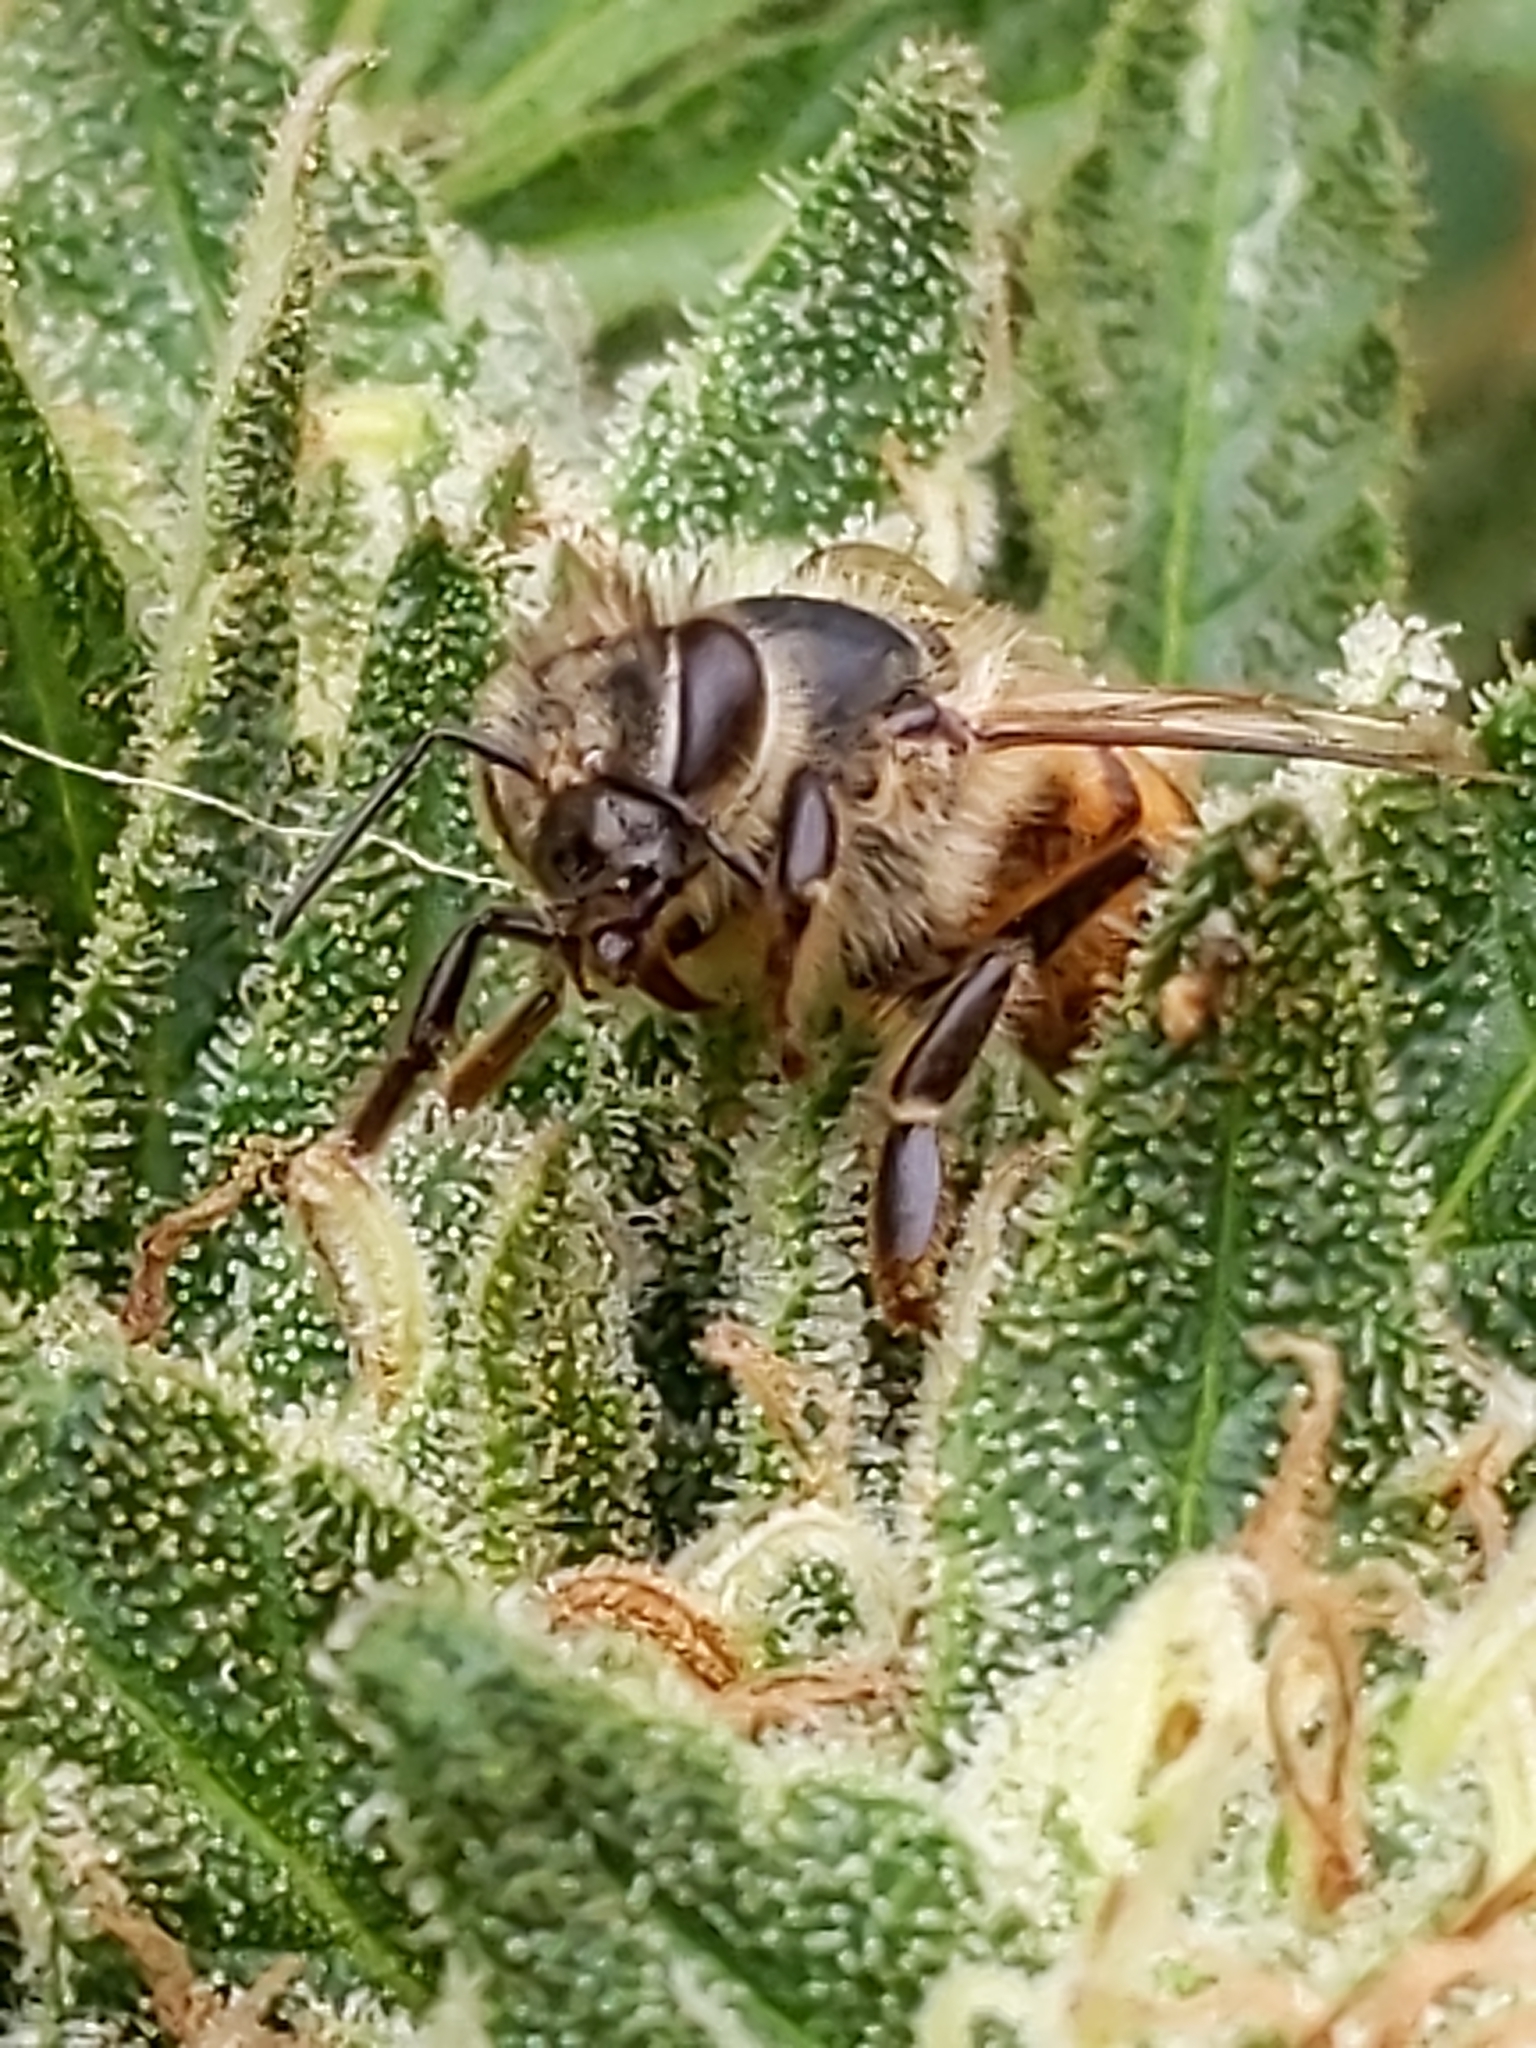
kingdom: Animalia
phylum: Arthropoda
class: Insecta
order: Hymenoptera
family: Apidae
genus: Apis
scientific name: Apis mellifera
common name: Honey bee
